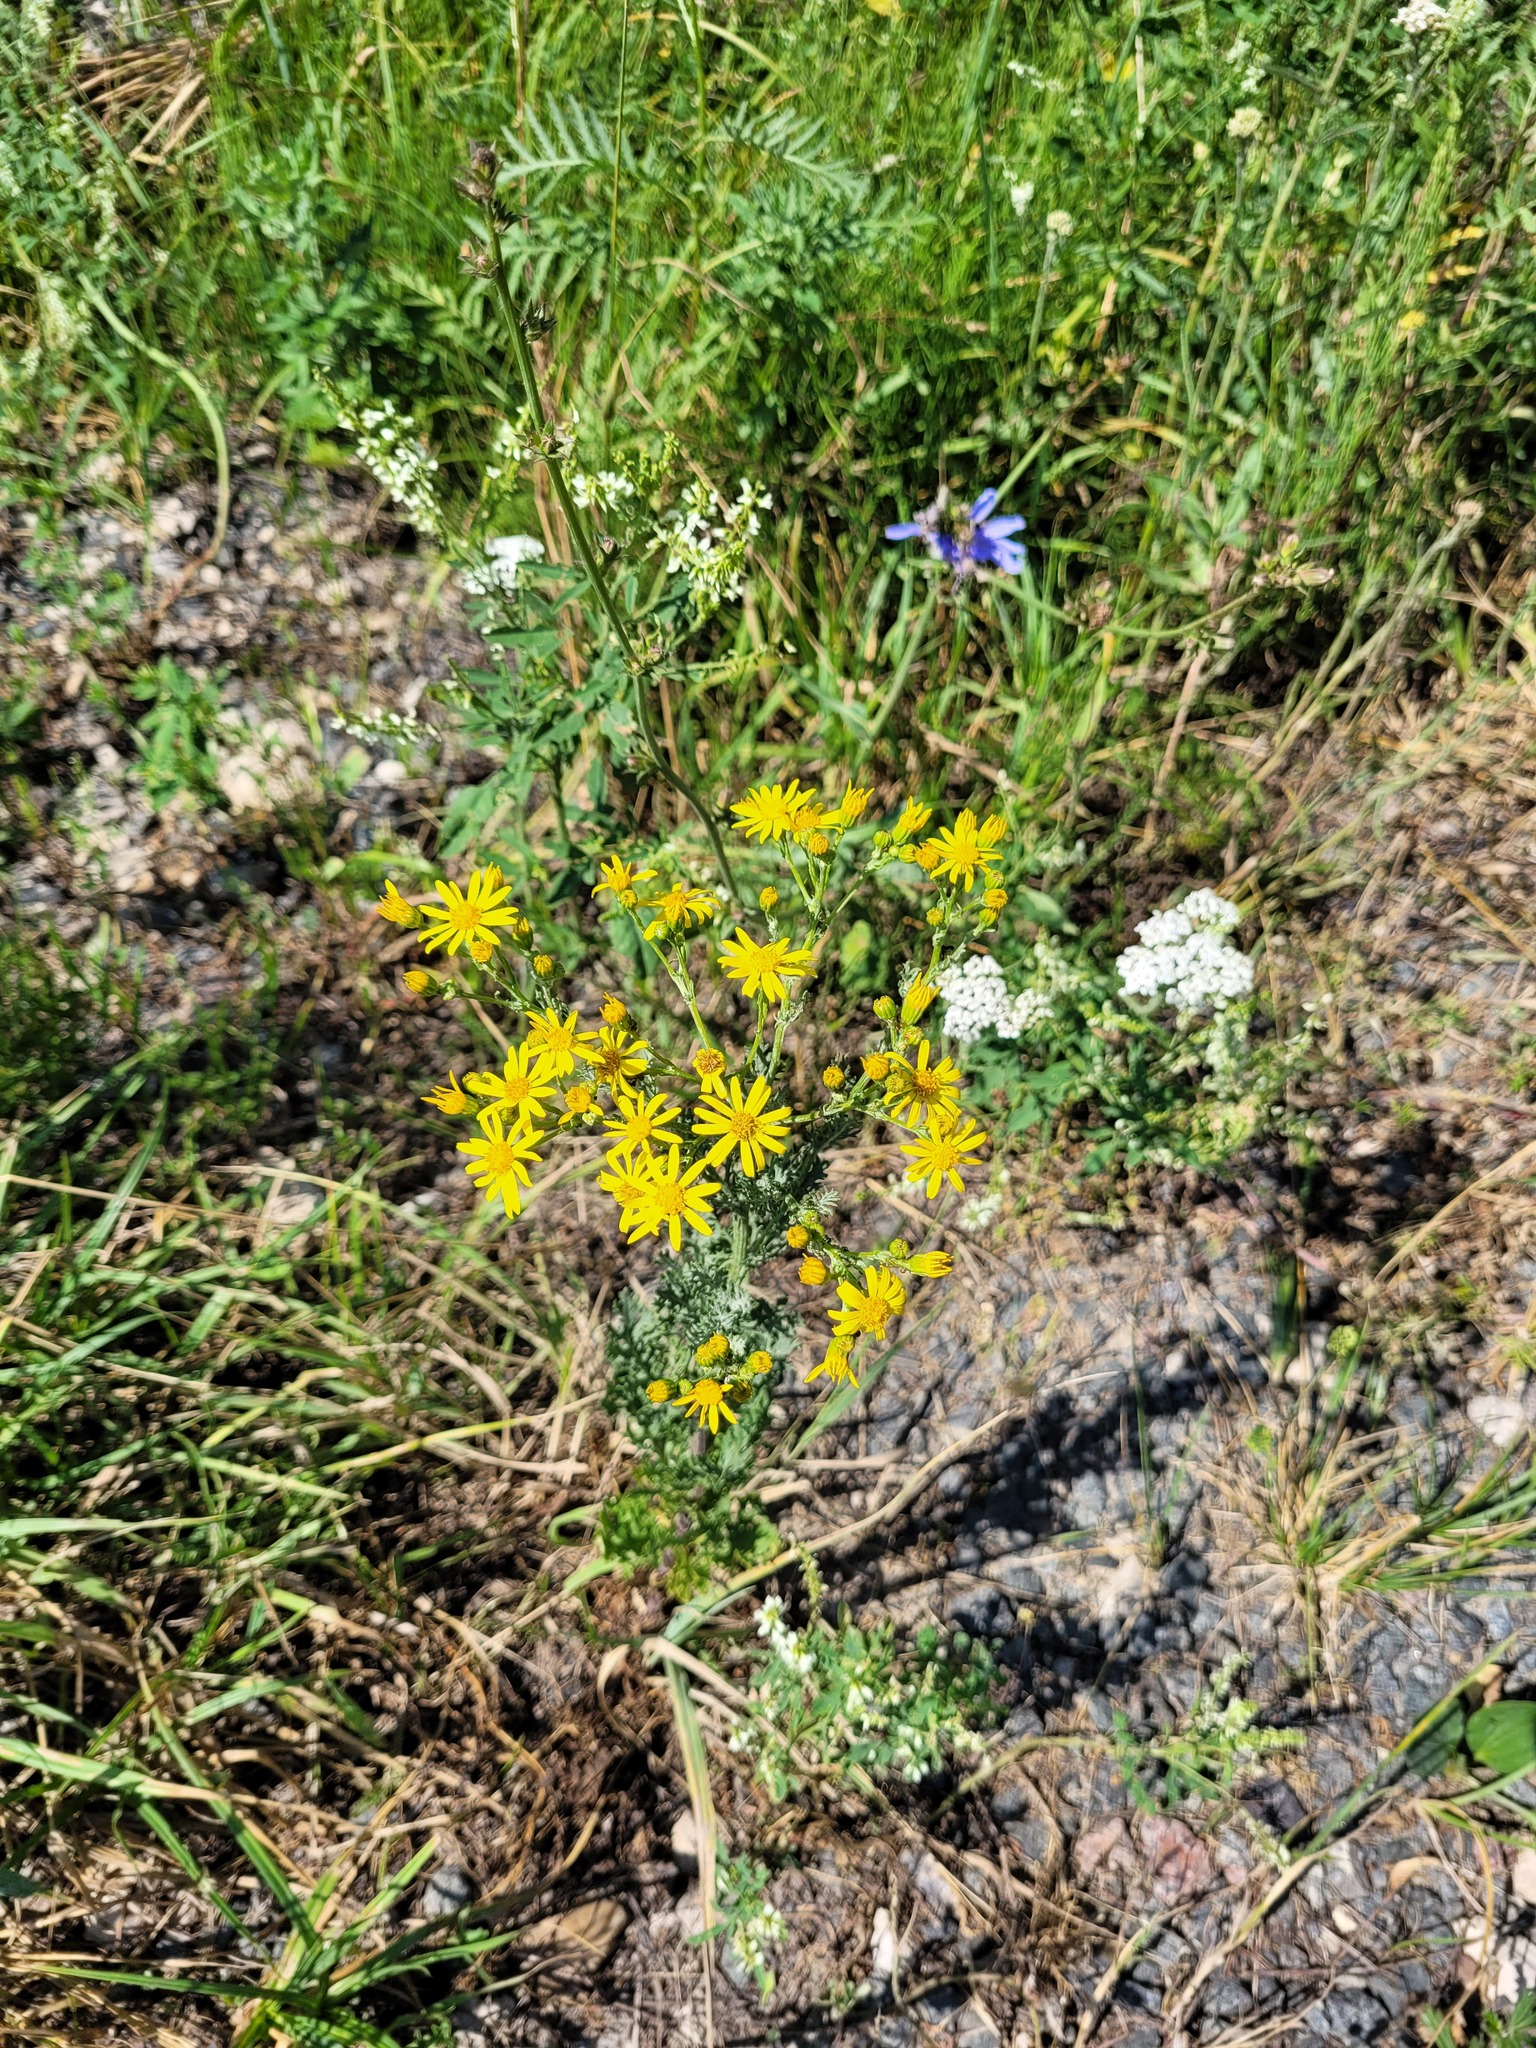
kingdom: Plantae
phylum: Tracheophyta
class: Magnoliopsida
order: Asterales
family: Asteraceae
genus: Jacobaea
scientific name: Jacobaea vulgaris
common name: Stinking willie
